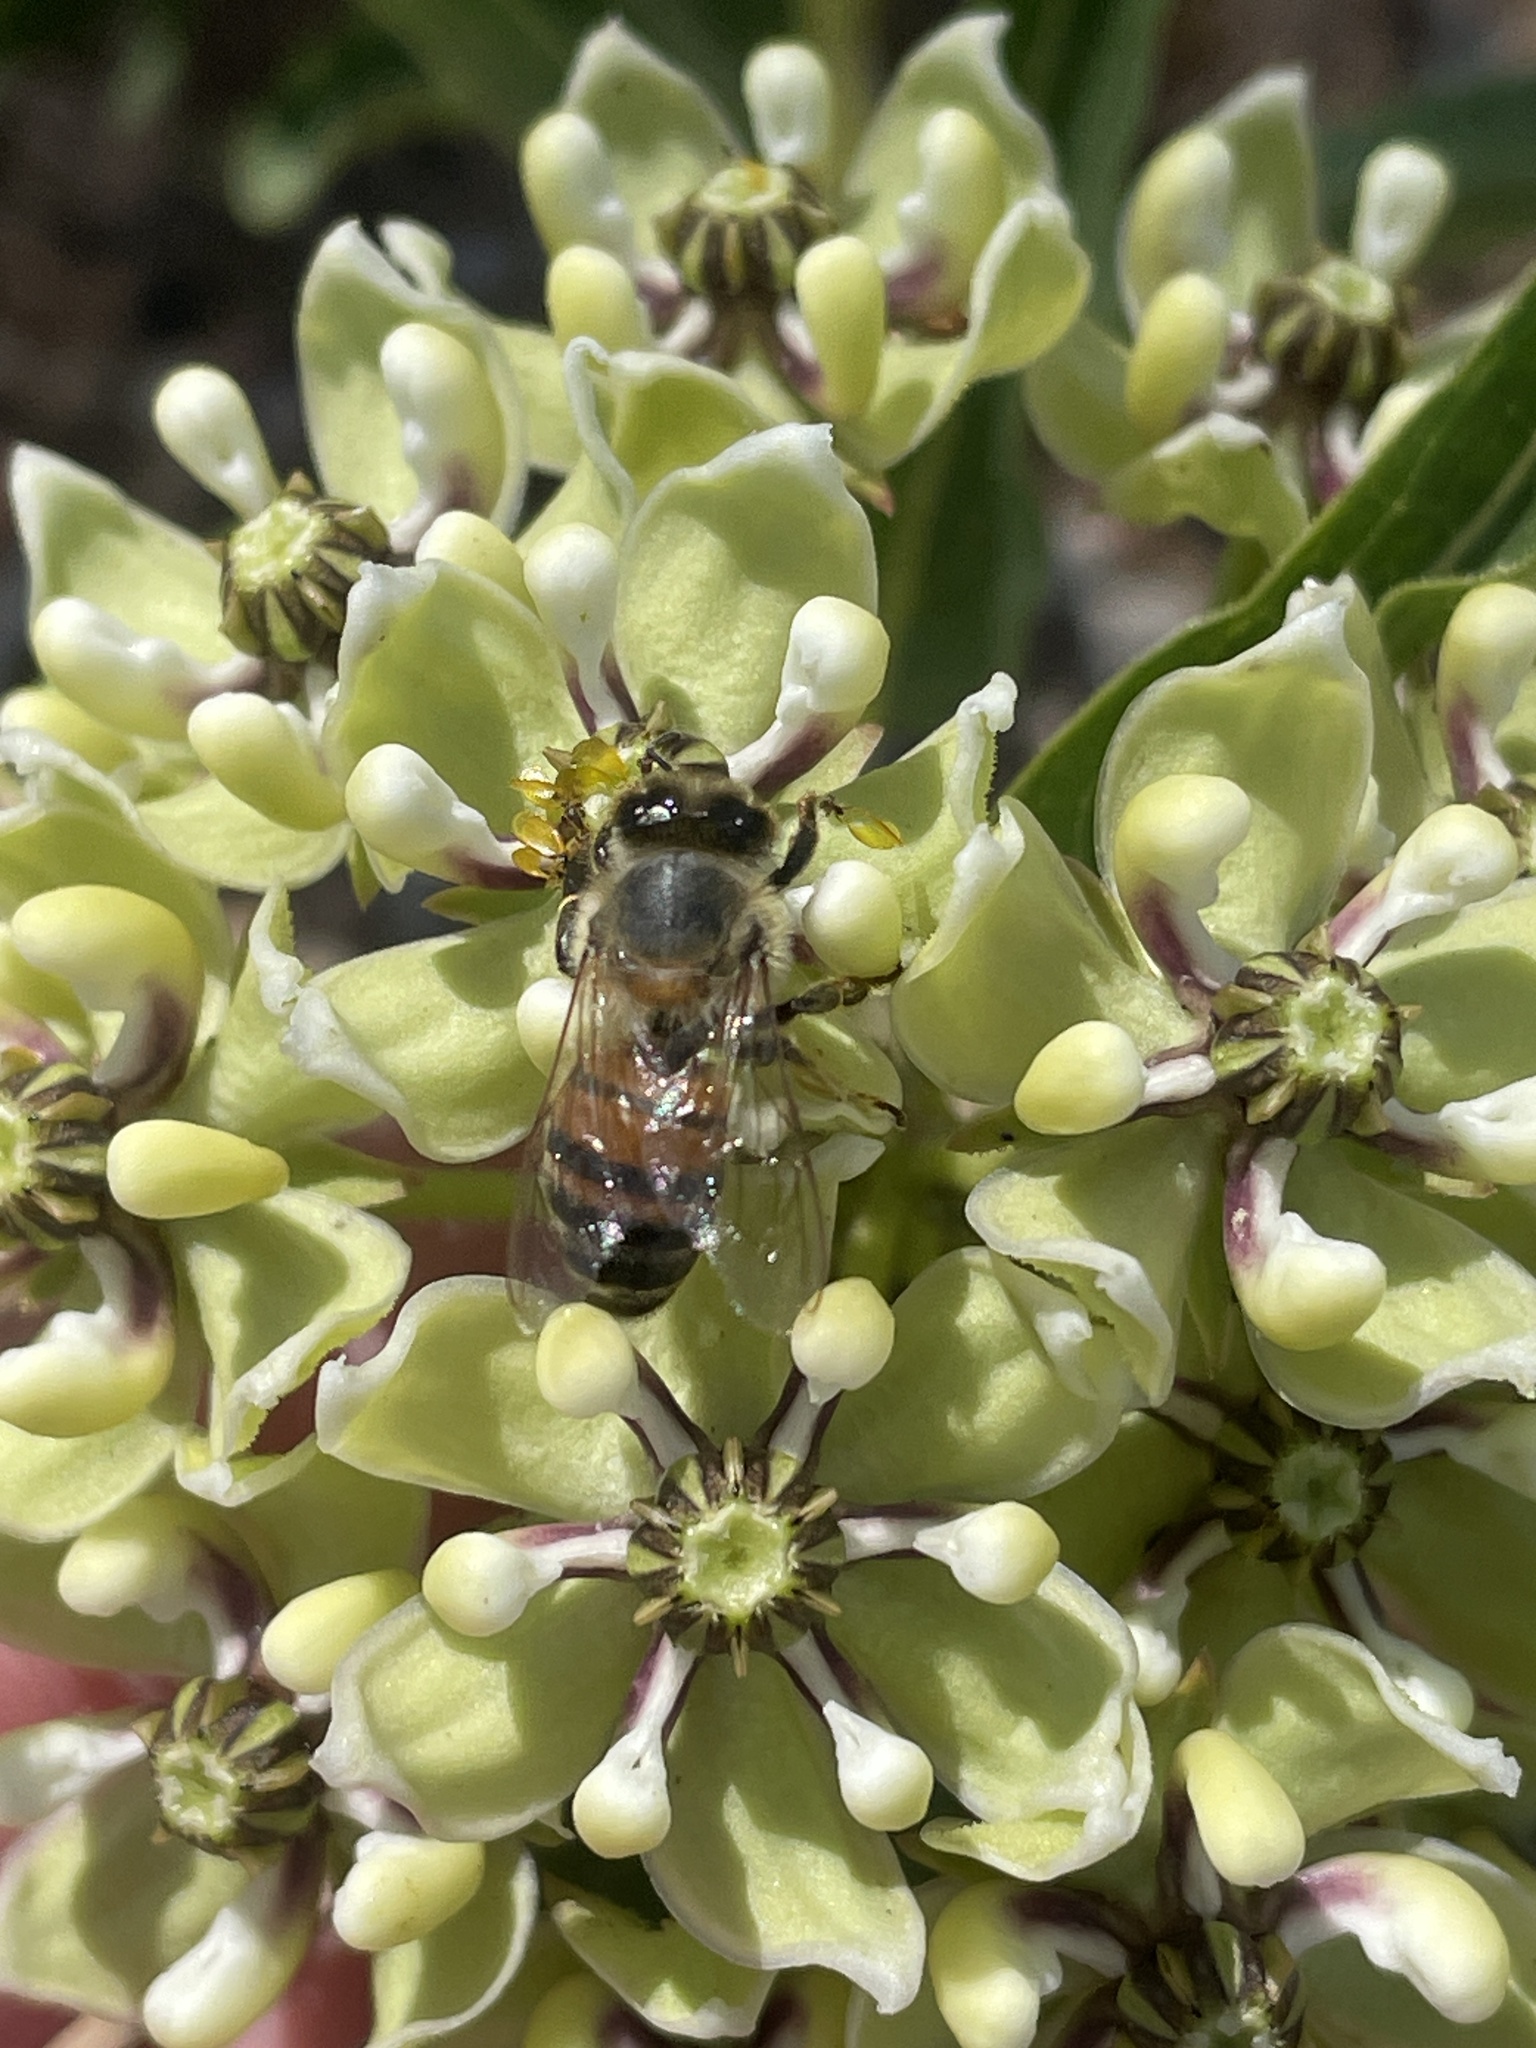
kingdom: Animalia
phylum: Arthropoda
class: Insecta
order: Hymenoptera
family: Apidae
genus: Apis
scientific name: Apis mellifera
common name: Honey bee
